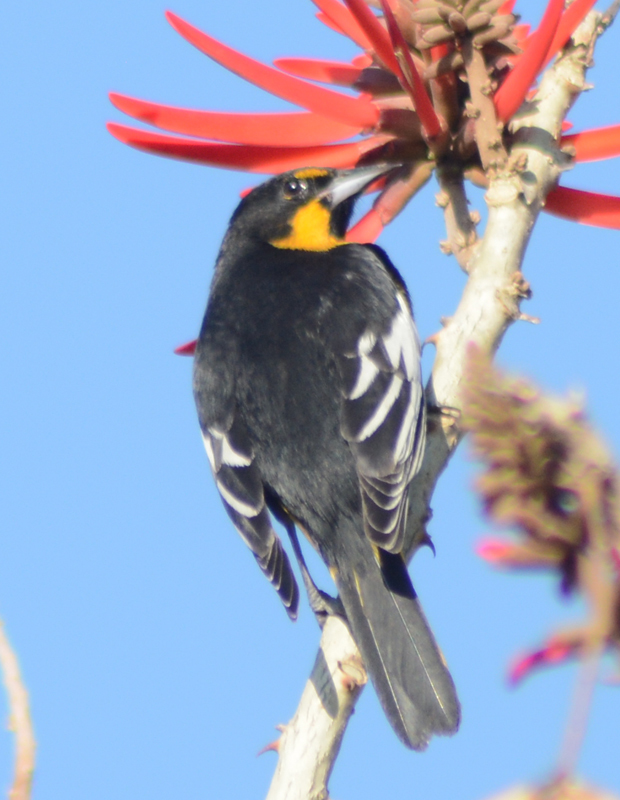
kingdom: Animalia
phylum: Chordata
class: Aves
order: Passeriformes
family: Icteridae
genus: Icterus
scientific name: Icterus abeillei
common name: Black-backed oriole
